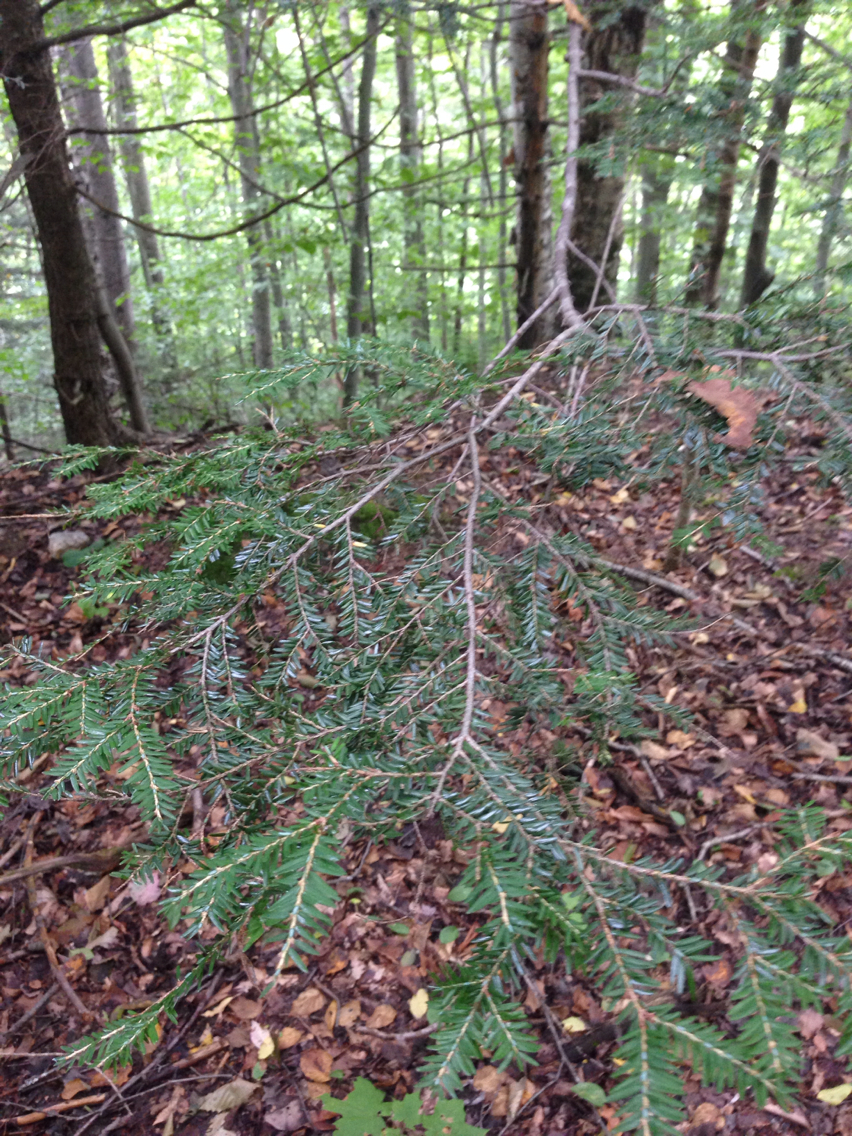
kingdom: Plantae
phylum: Tracheophyta
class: Pinopsida
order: Pinales
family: Pinaceae
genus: Tsuga
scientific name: Tsuga canadensis
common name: Eastern hemlock
